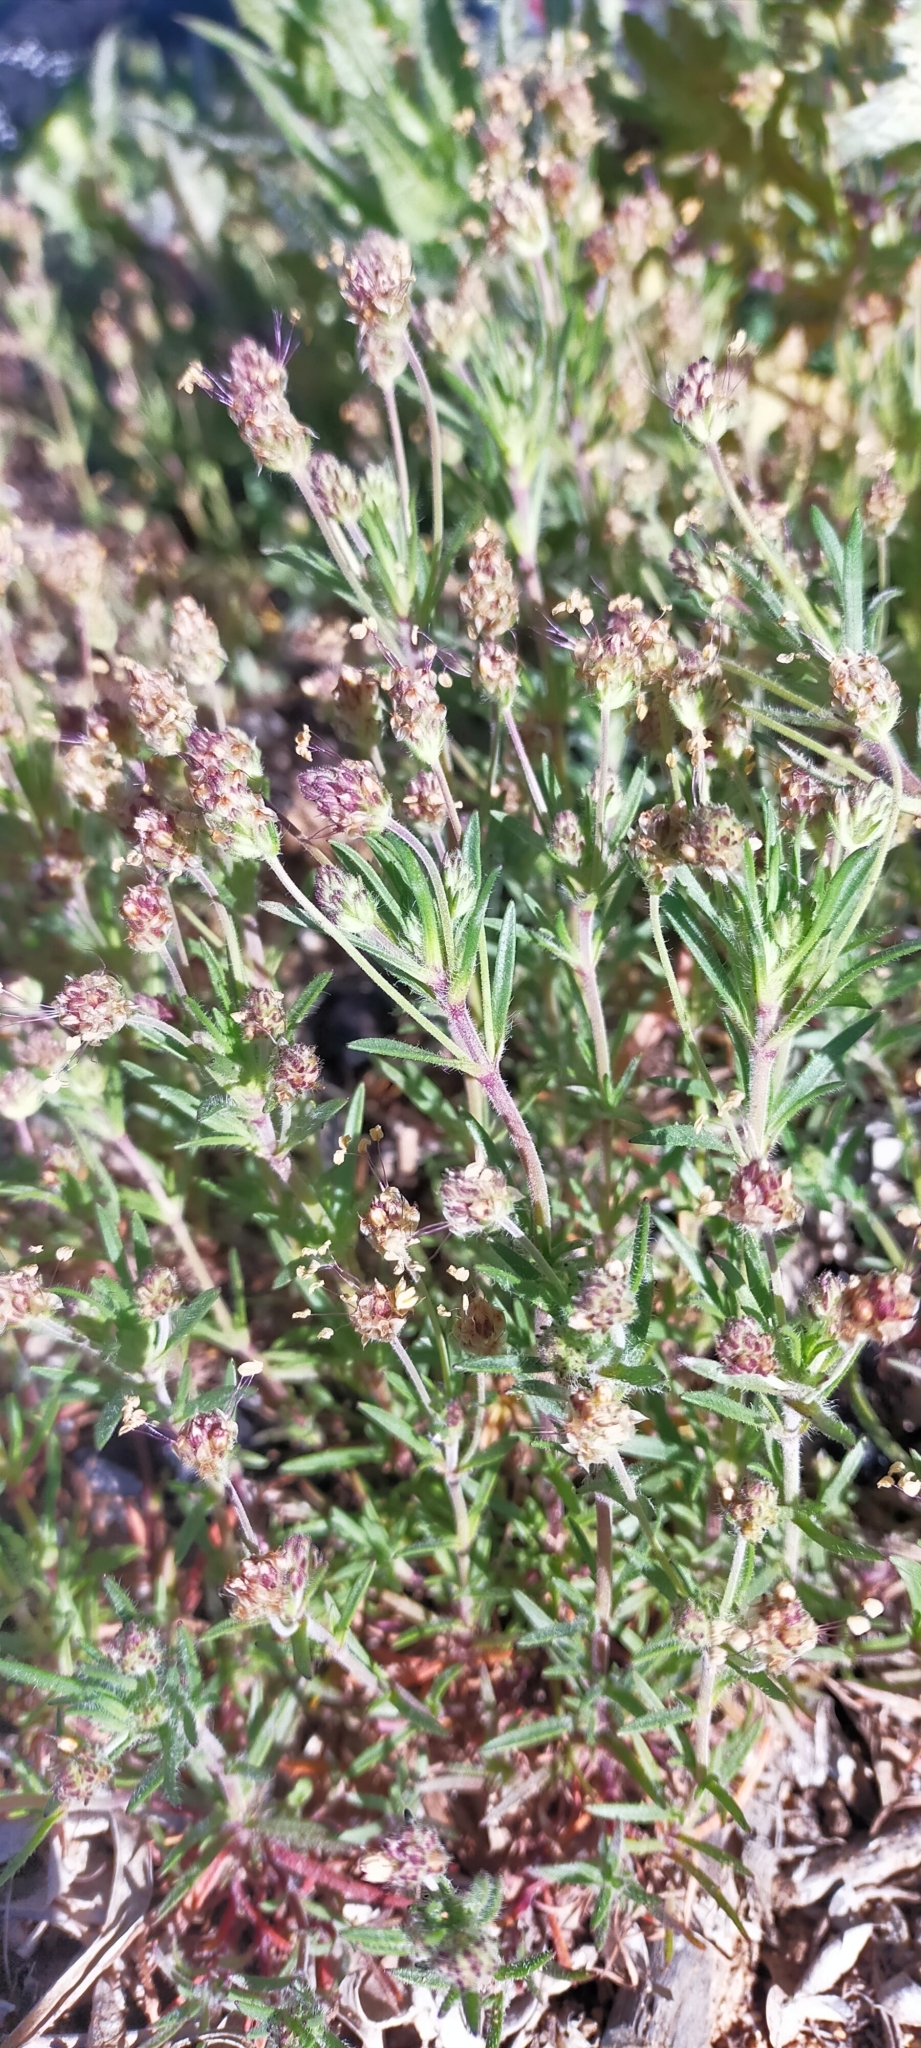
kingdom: Plantae
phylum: Tracheophyta
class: Magnoliopsida
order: Lamiales
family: Plantaginaceae
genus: Plantago
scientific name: Plantago afra
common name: Glandular plantain
